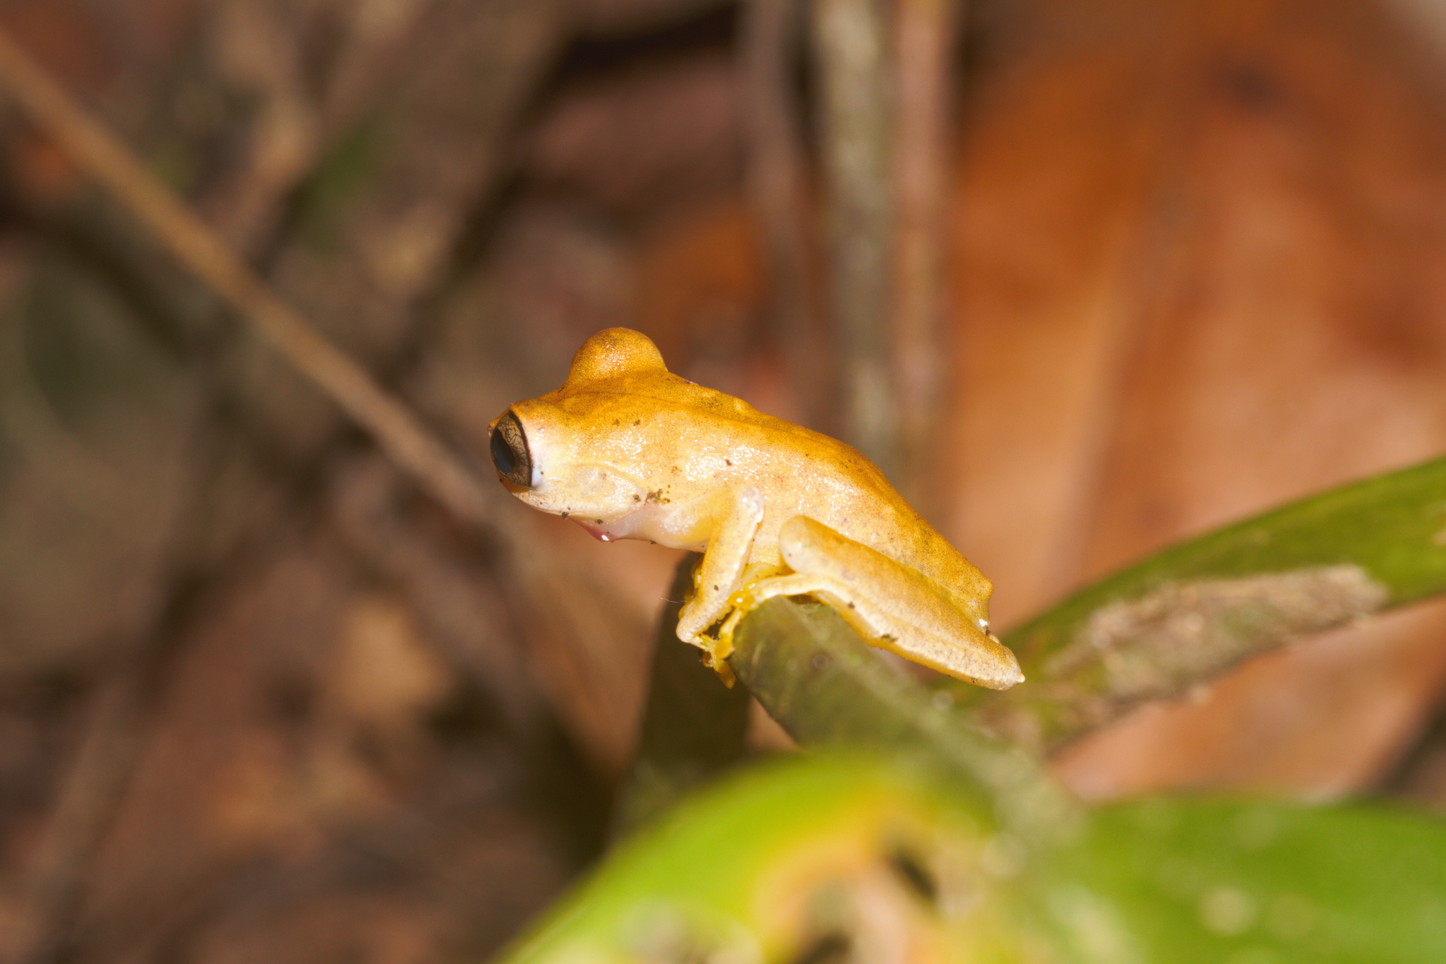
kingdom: Animalia
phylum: Chordata
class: Amphibia
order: Anura
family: Hylidae
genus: Boana
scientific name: Boana courtoisae
